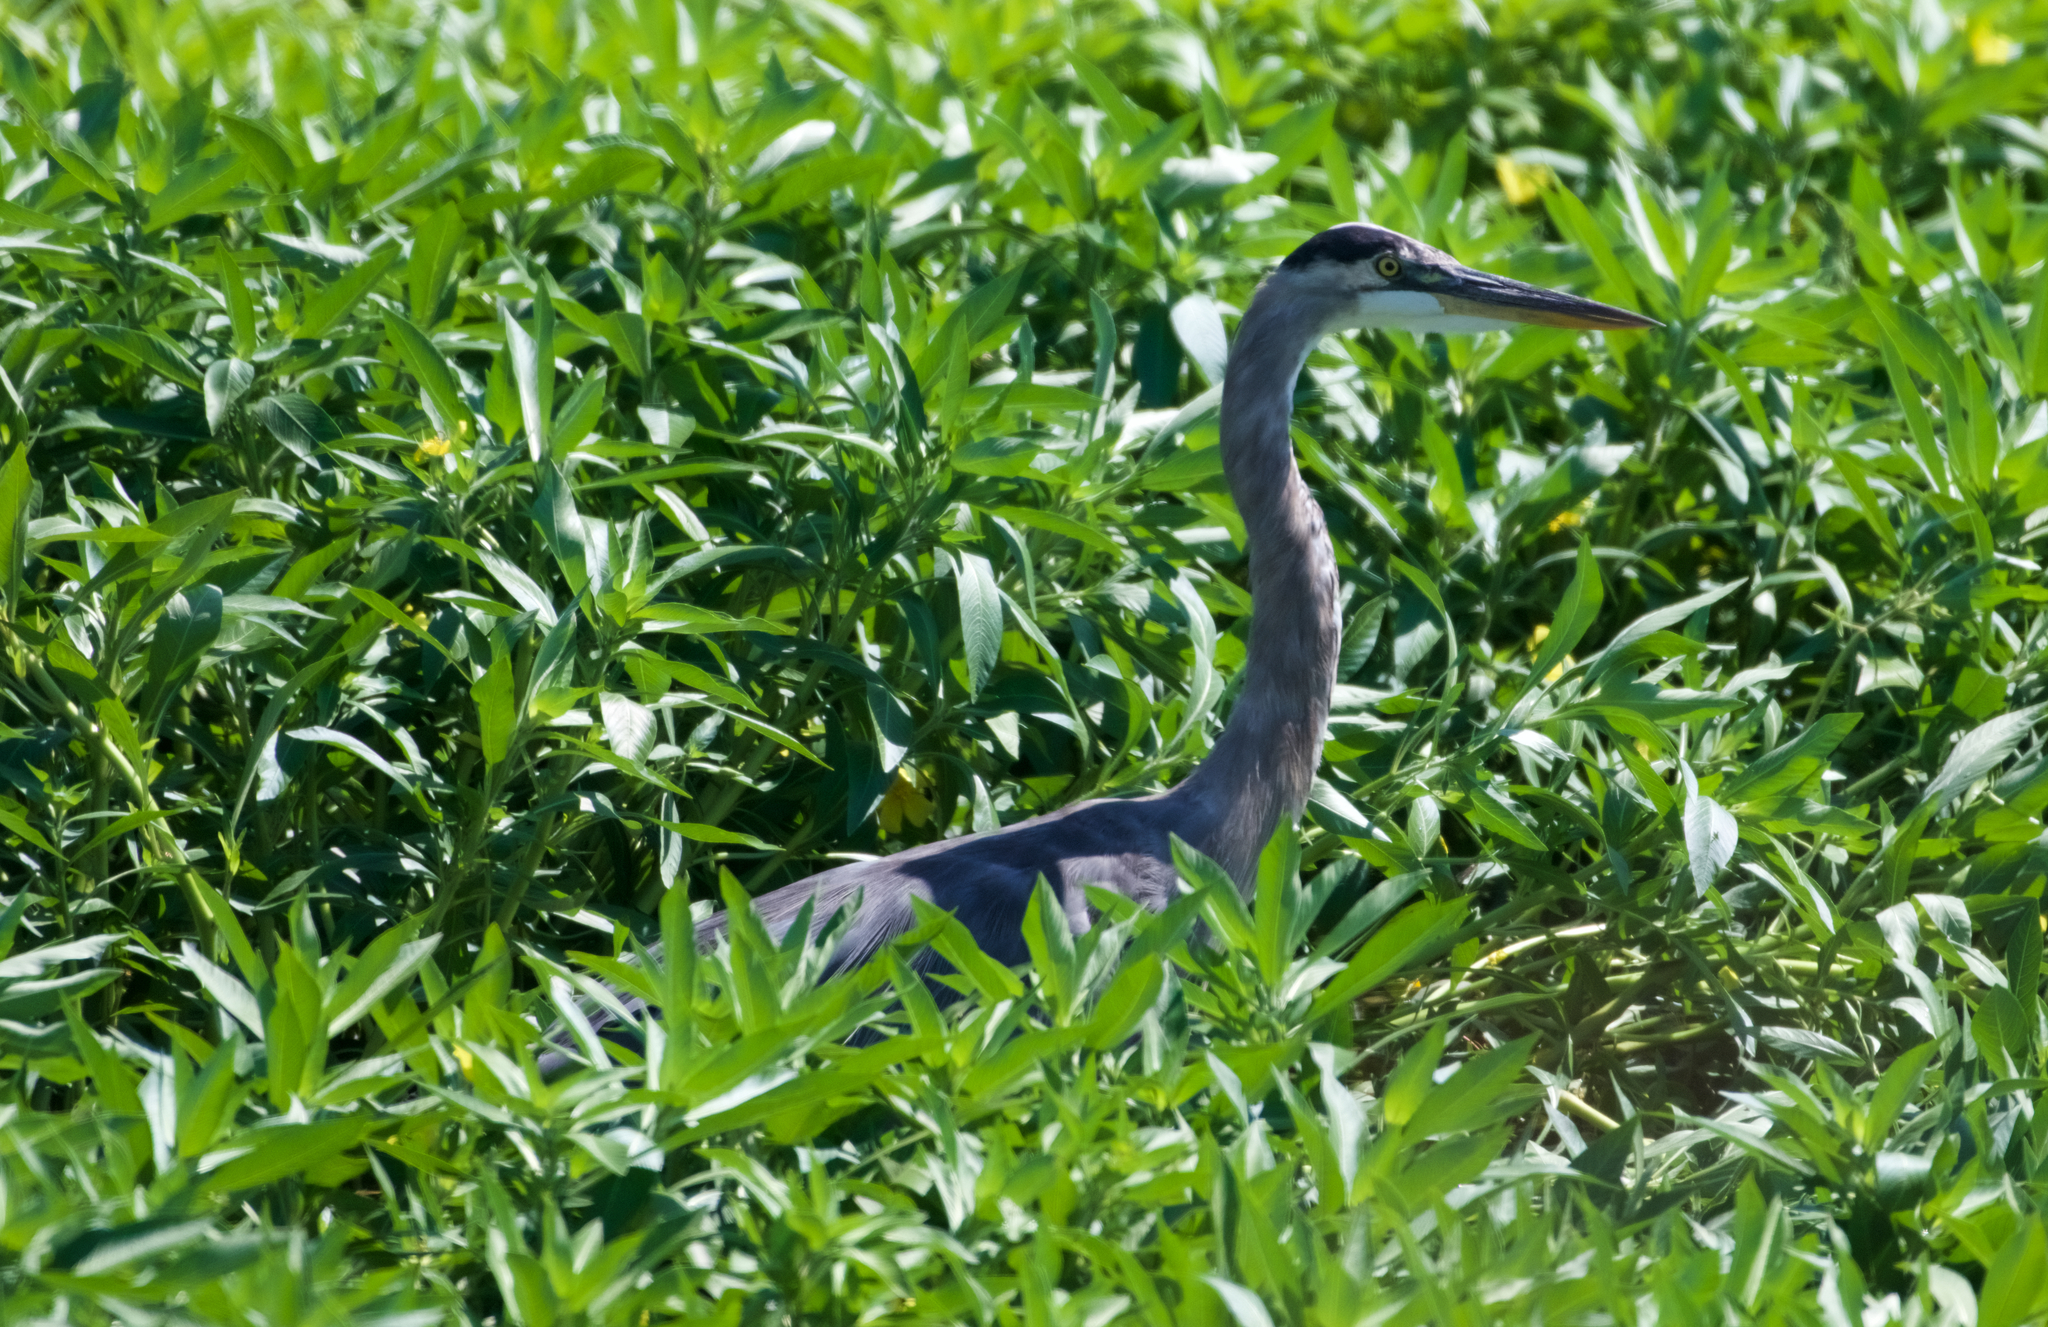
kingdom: Animalia
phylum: Chordata
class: Aves
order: Pelecaniformes
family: Ardeidae
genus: Ardea
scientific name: Ardea herodias
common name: Great blue heron
